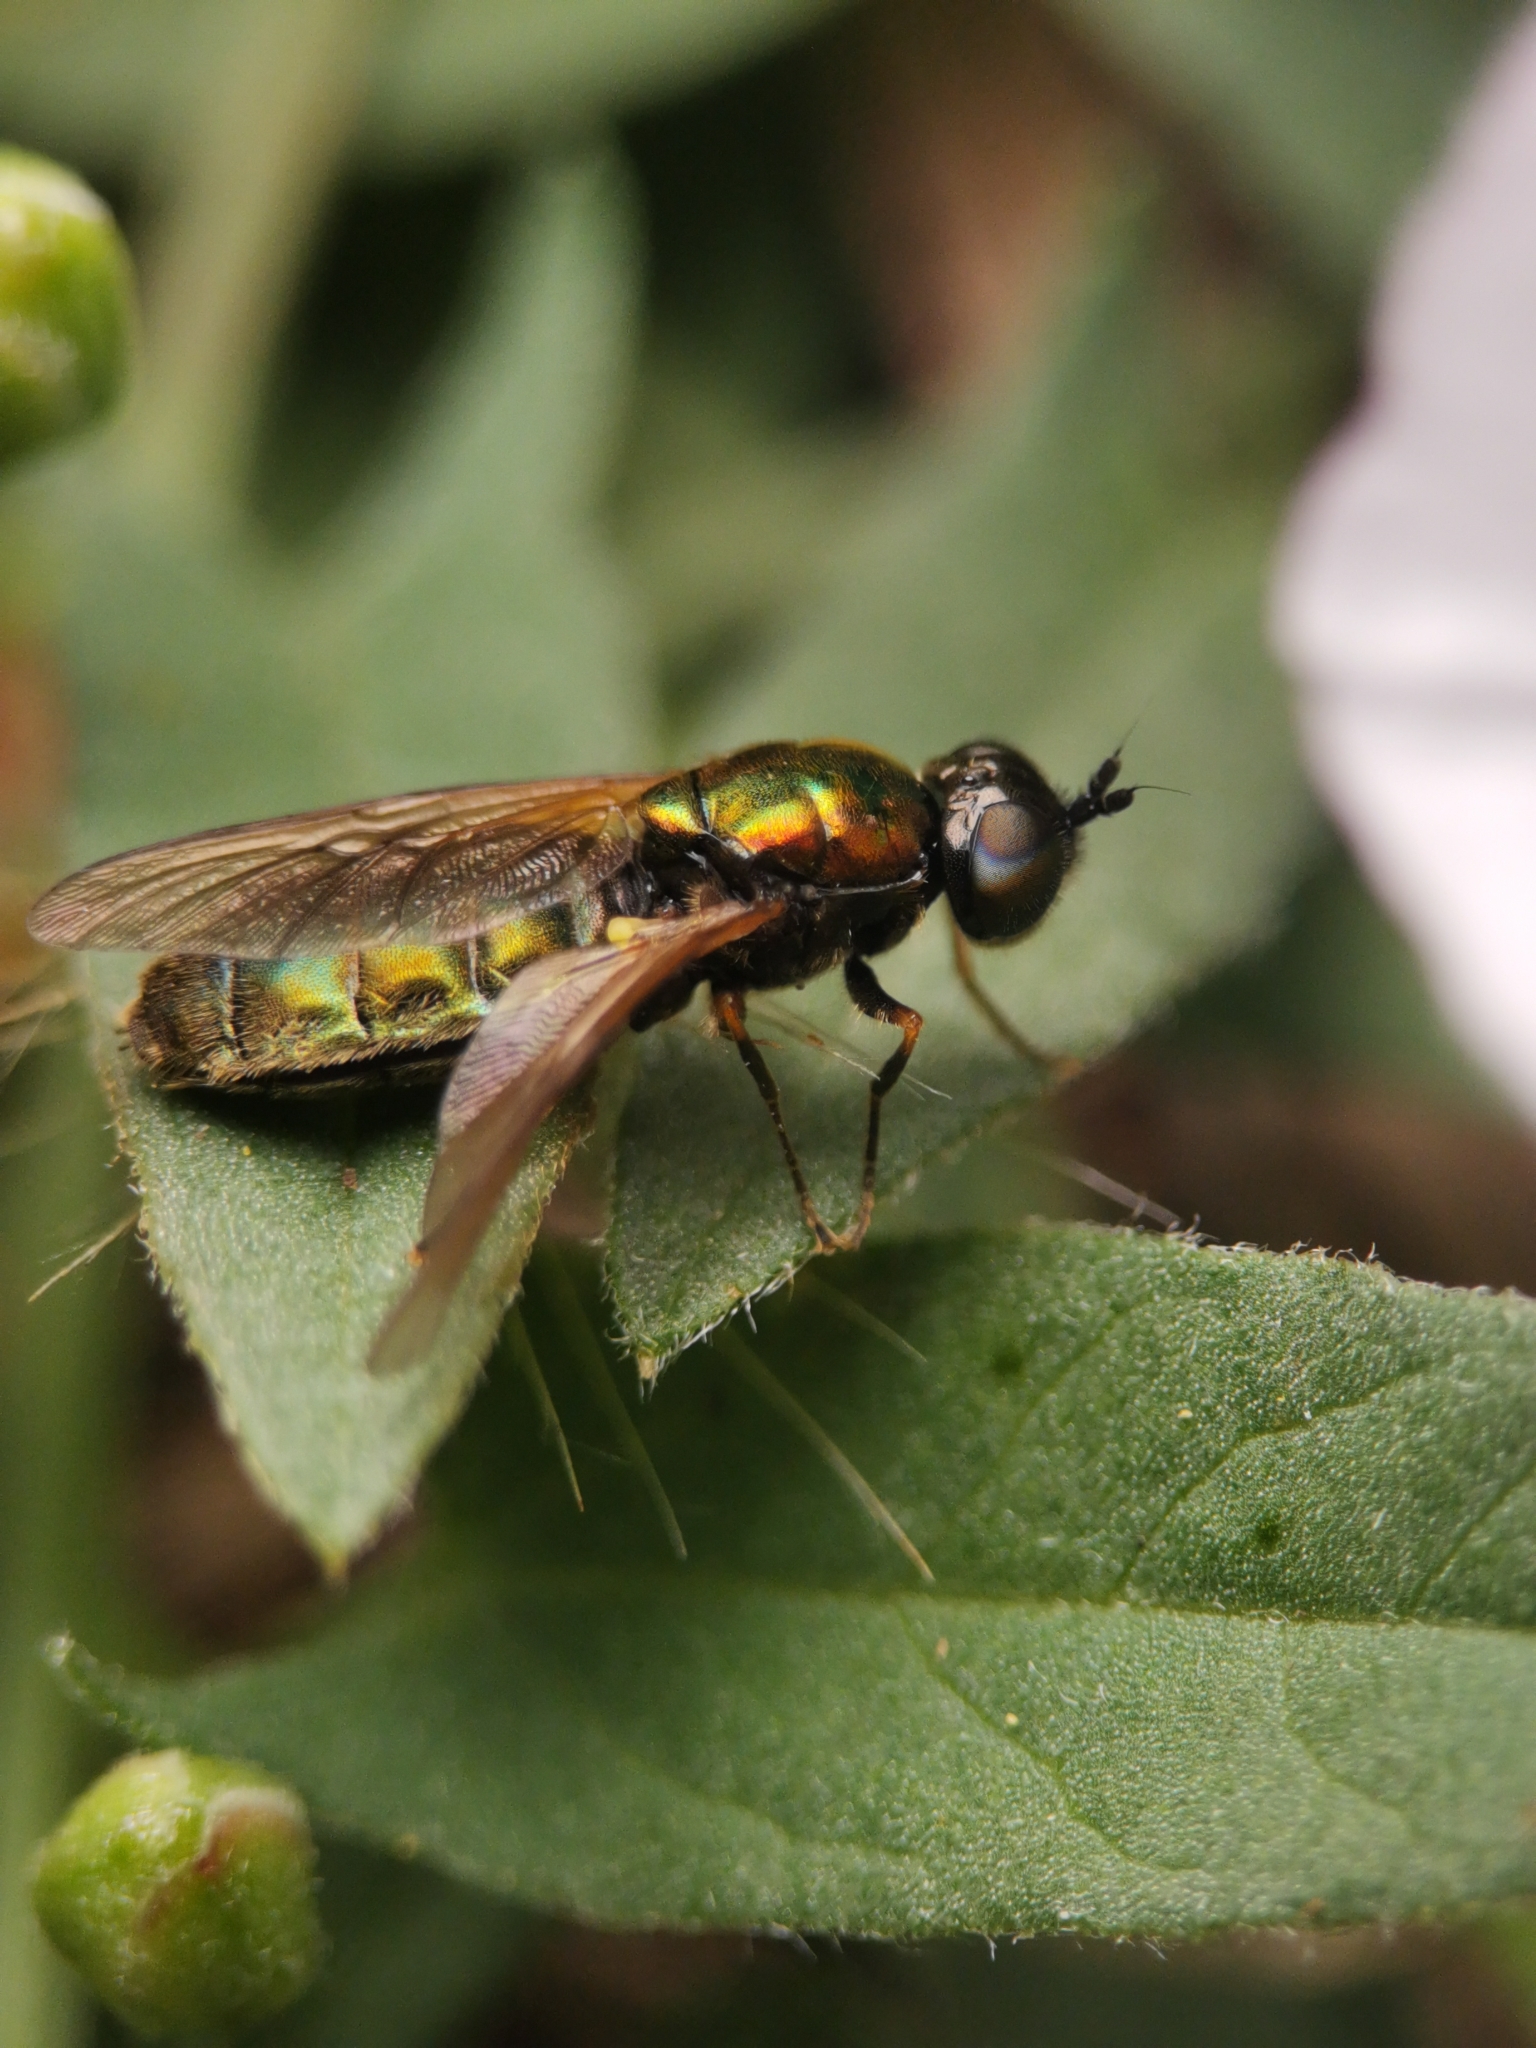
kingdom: Animalia
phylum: Arthropoda
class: Insecta
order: Diptera
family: Stratiomyidae
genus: Chloromyia
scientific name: Chloromyia formosa
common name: Soldier fly
